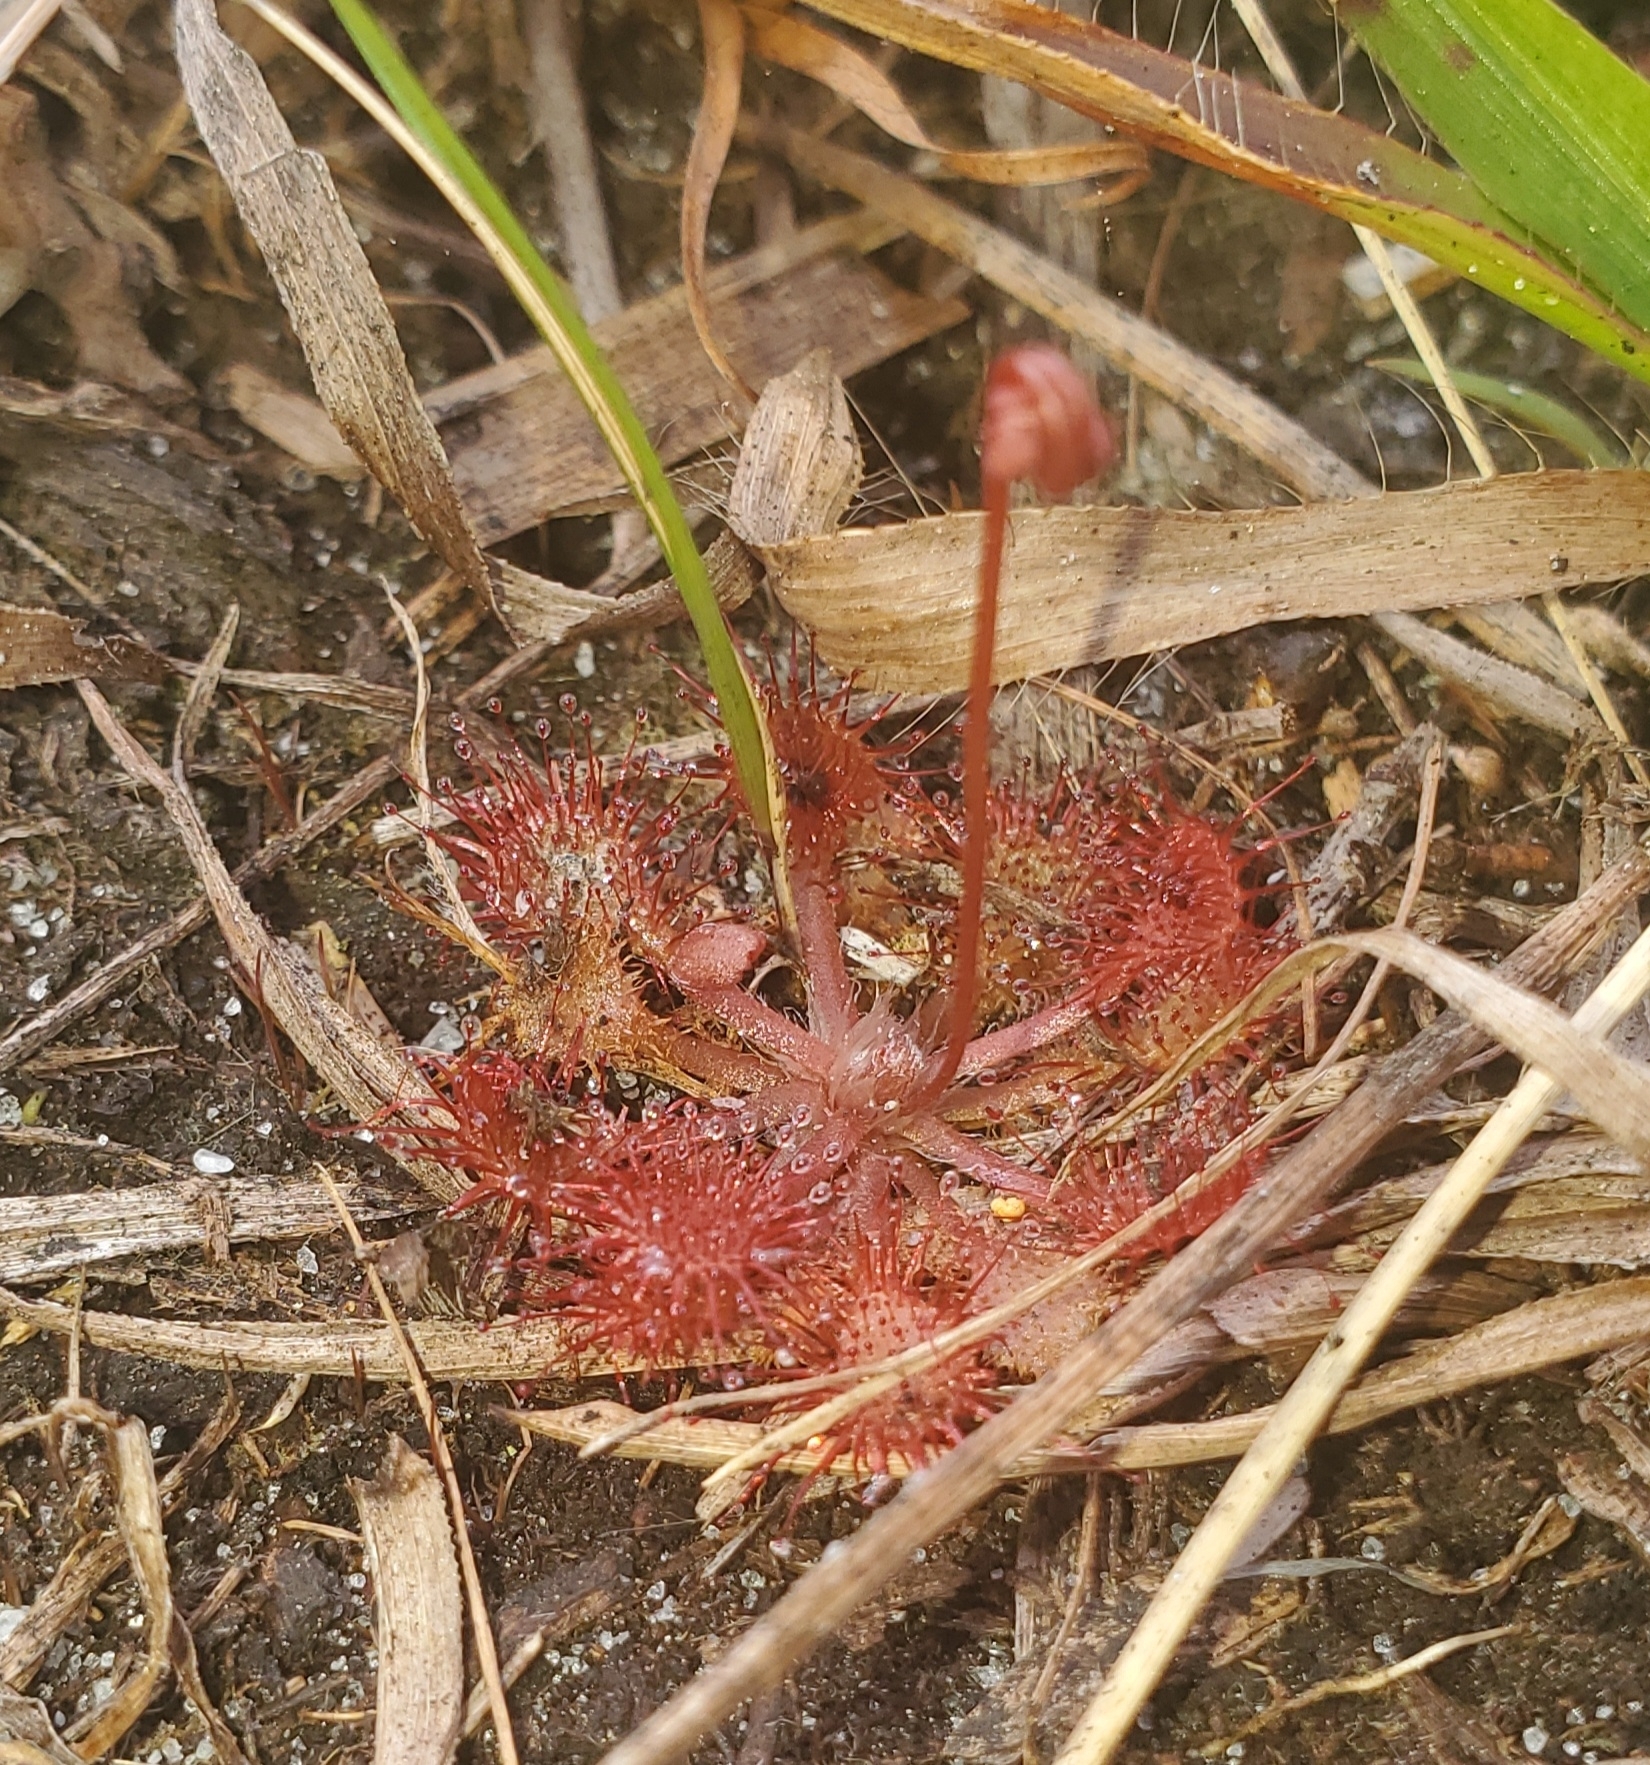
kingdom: Plantae
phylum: Tracheophyta
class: Magnoliopsida
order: Caryophyllales
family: Droseraceae
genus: Drosera
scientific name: Drosera capillaris
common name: Pink sundew
